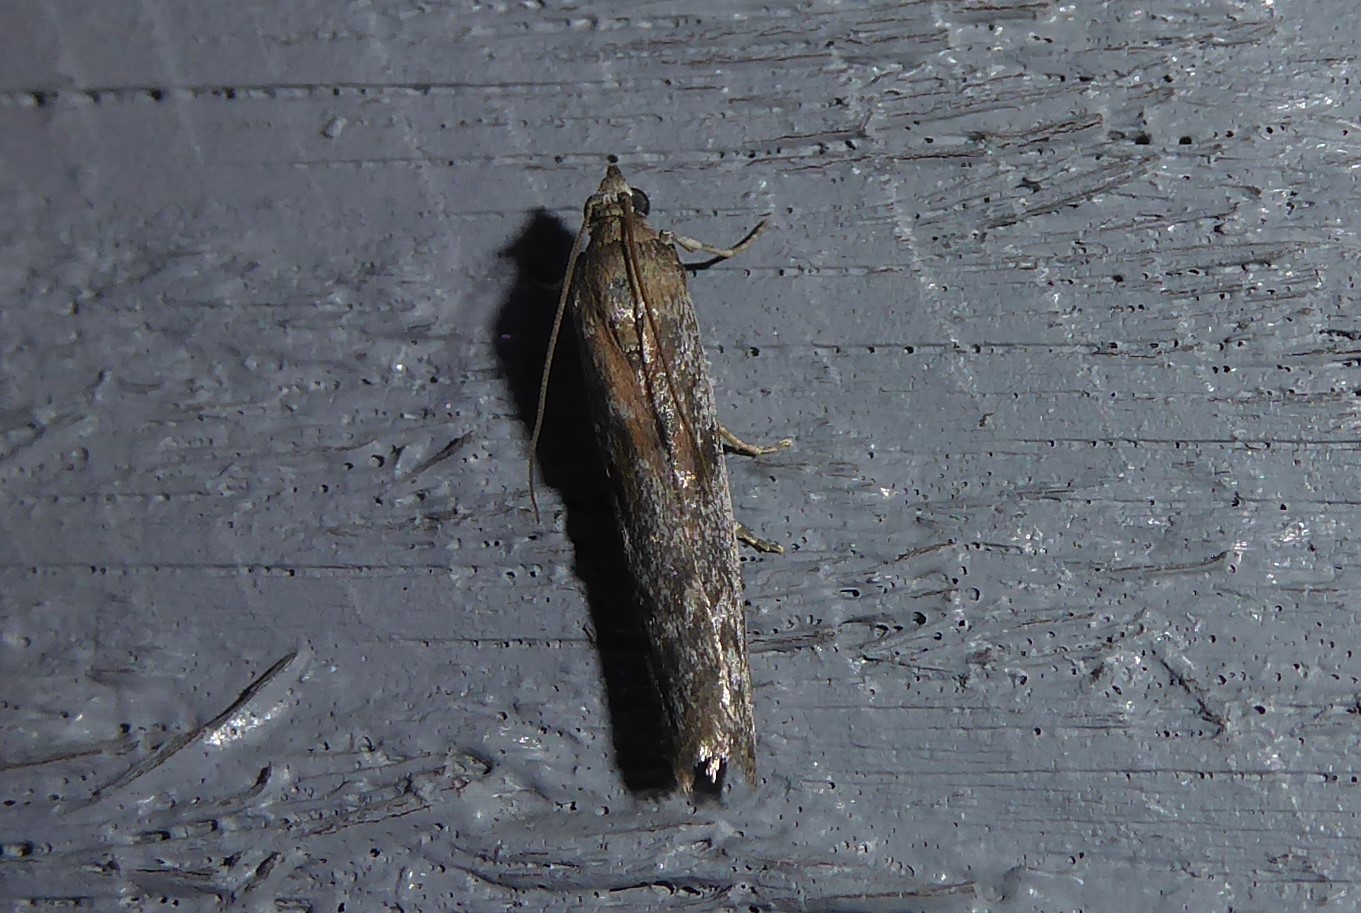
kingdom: Animalia
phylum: Arthropoda
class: Insecta
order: Lepidoptera
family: Pyralidae
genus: Patagoniodes
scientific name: Patagoniodes farinaria
